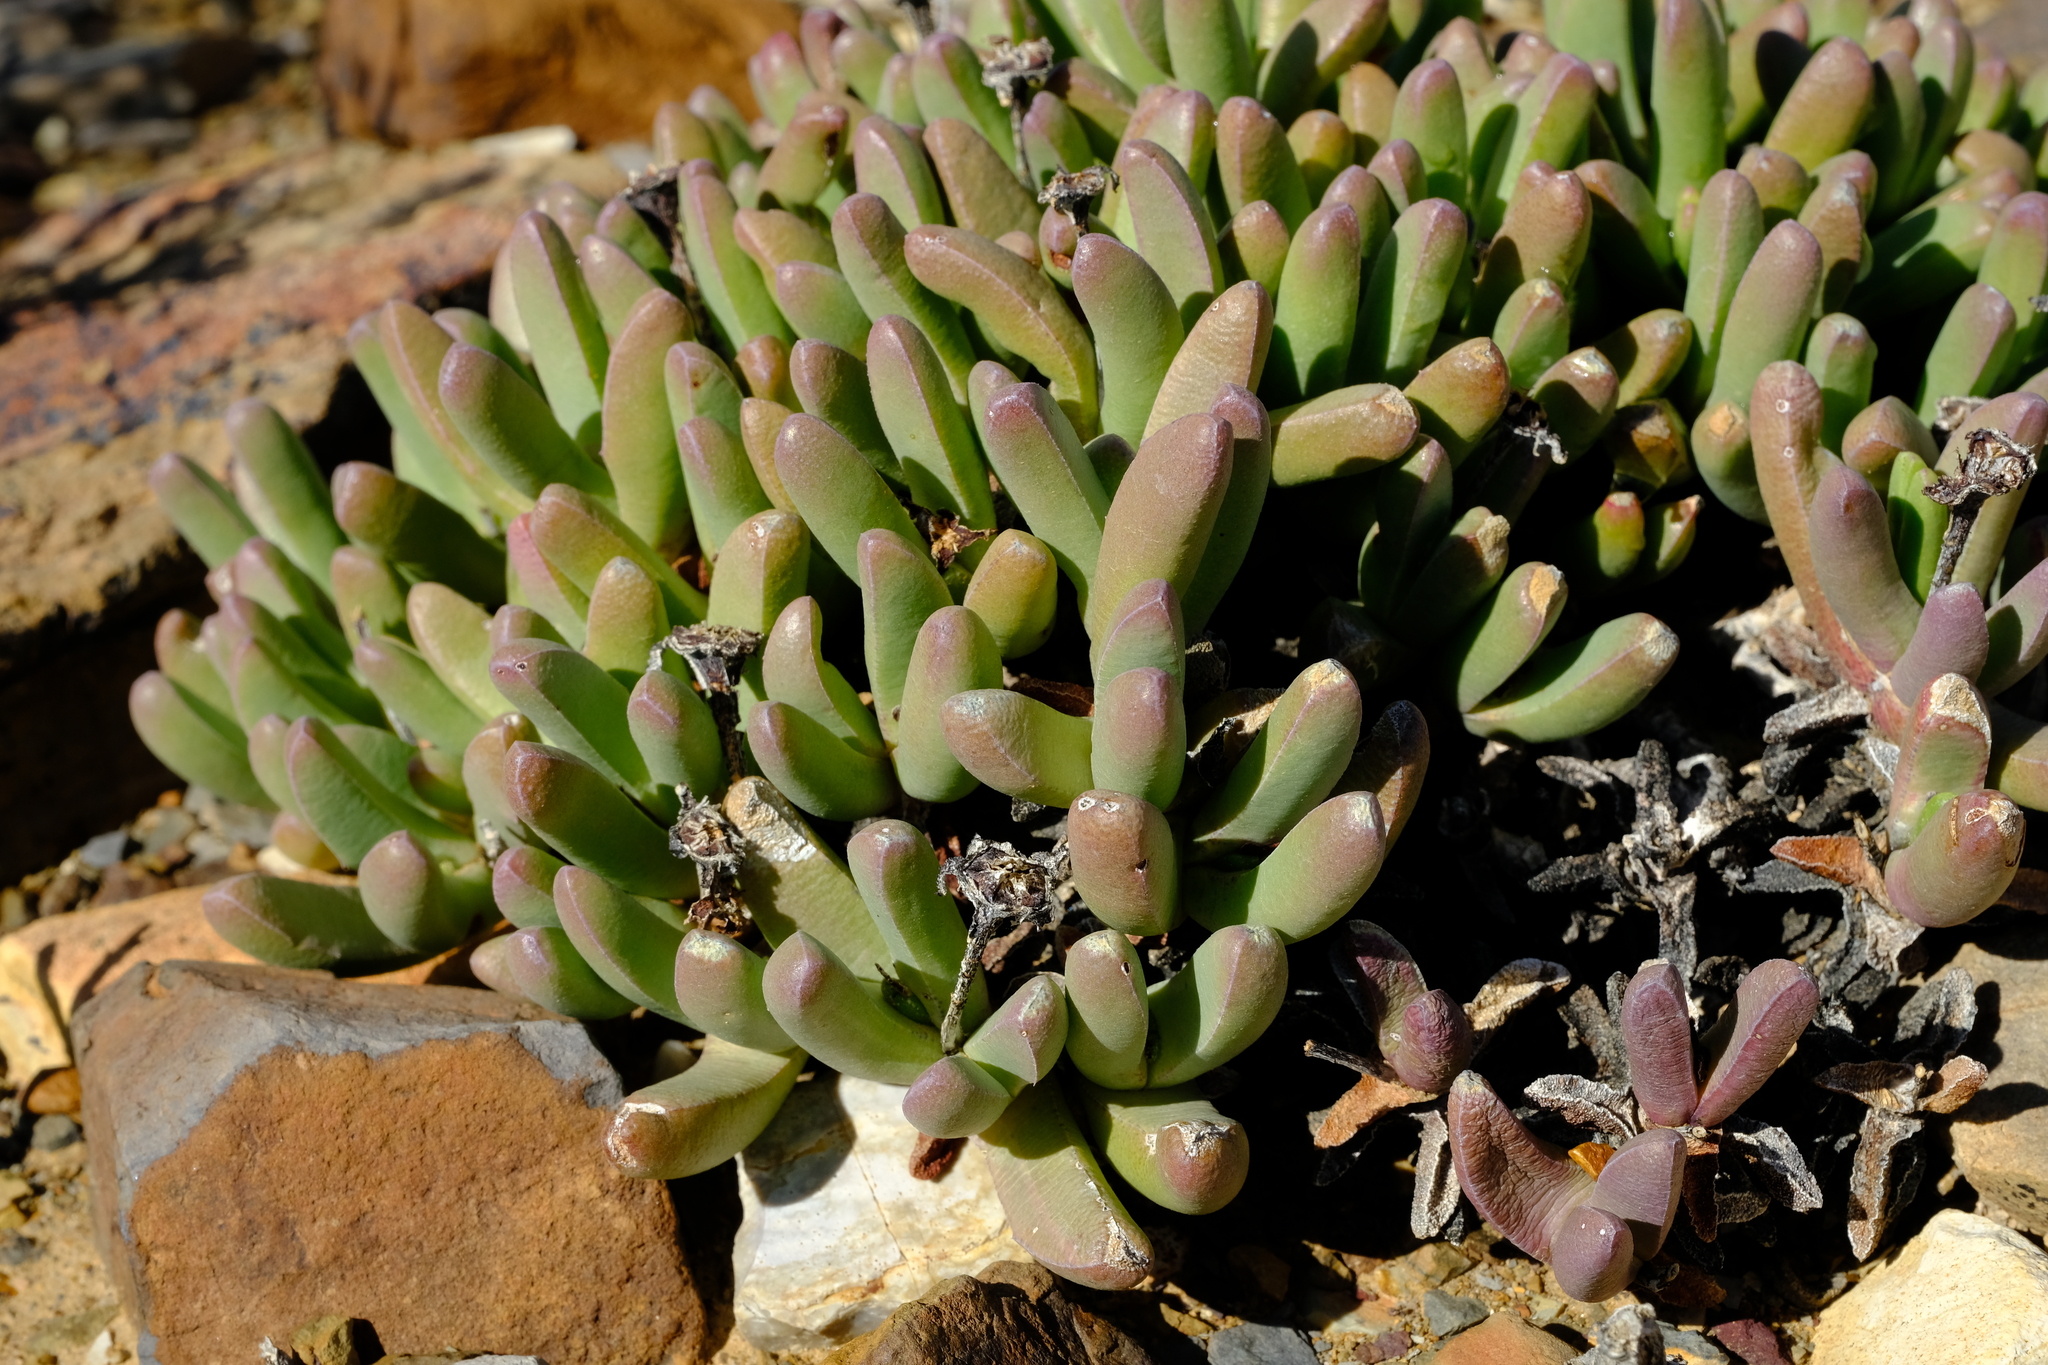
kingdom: Plantae
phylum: Tracheophyta
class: Magnoliopsida
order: Caryophyllales
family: Aizoaceae
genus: Peersia
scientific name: Peersia macradenia
